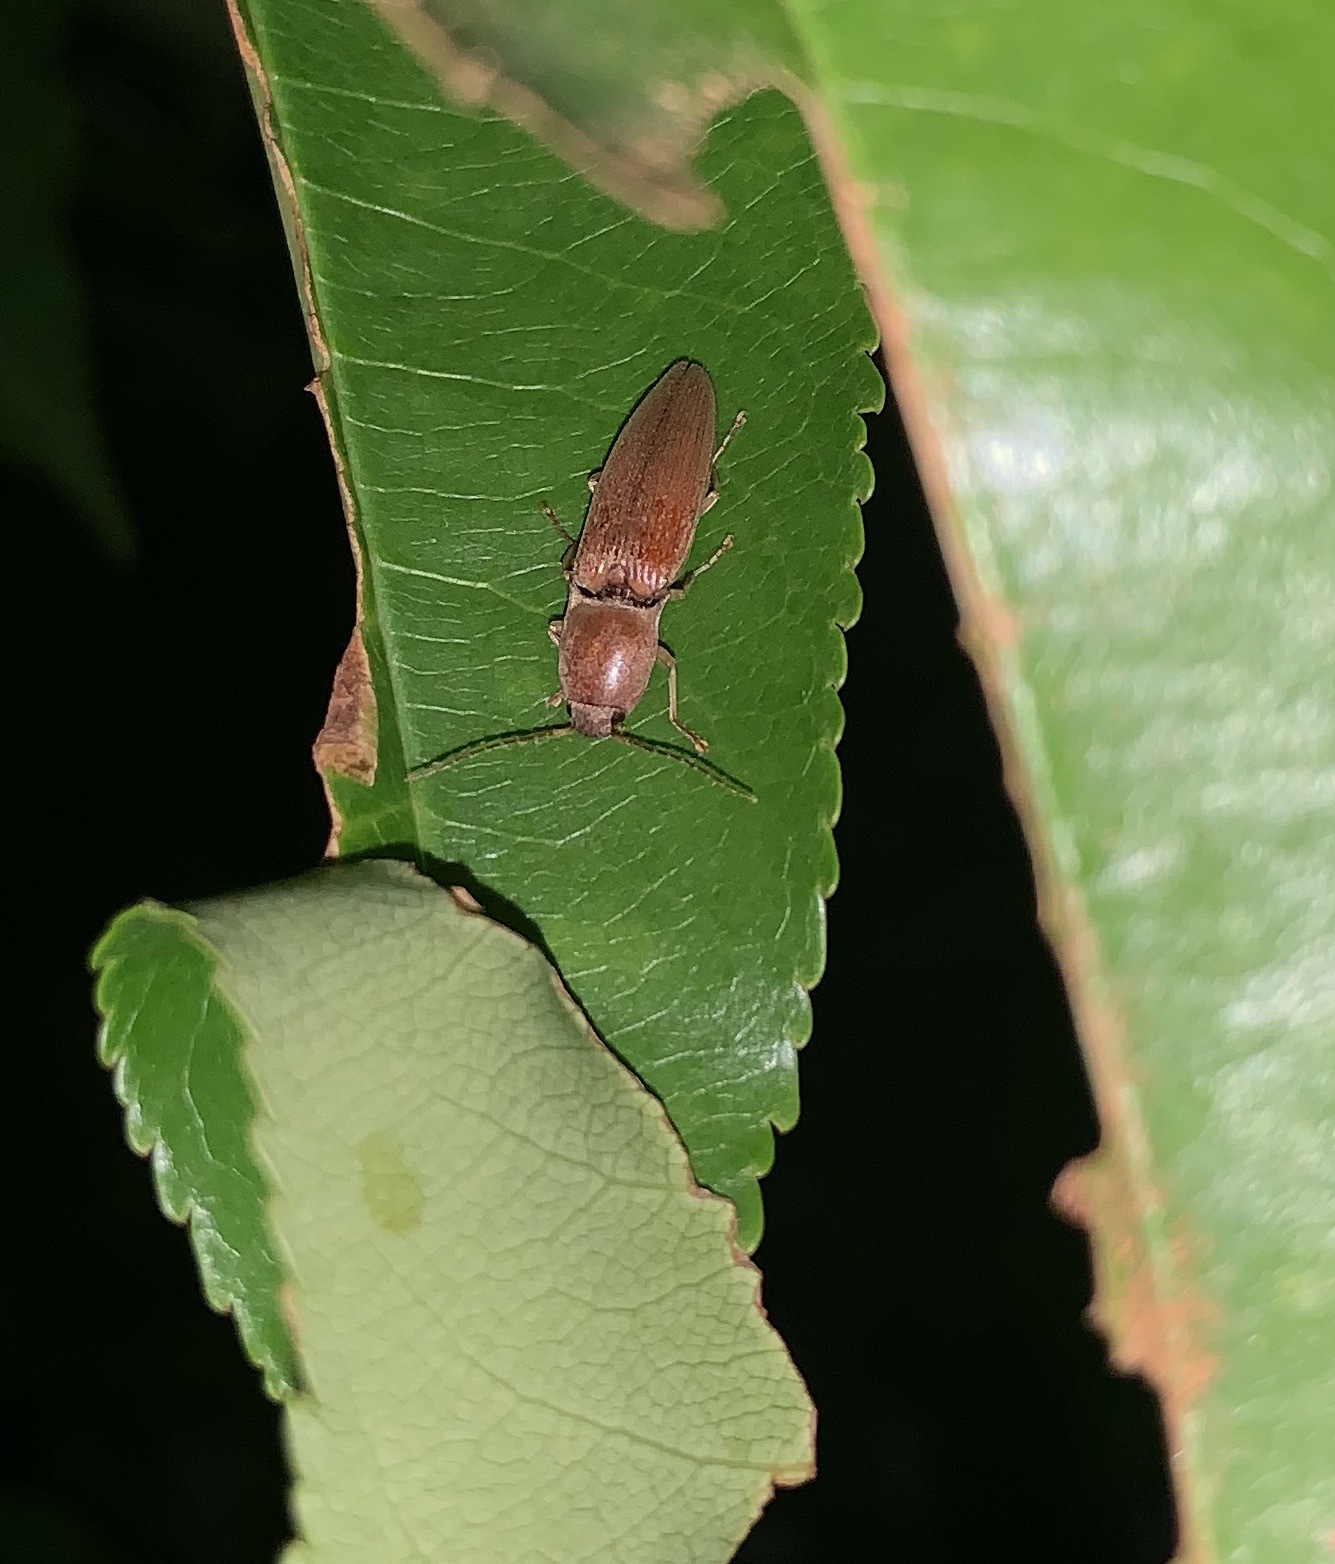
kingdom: Animalia
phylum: Arthropoda
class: Insecta
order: Coleoptera
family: Elateridae
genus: Monocrepidius
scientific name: Monocrepidius lividus
